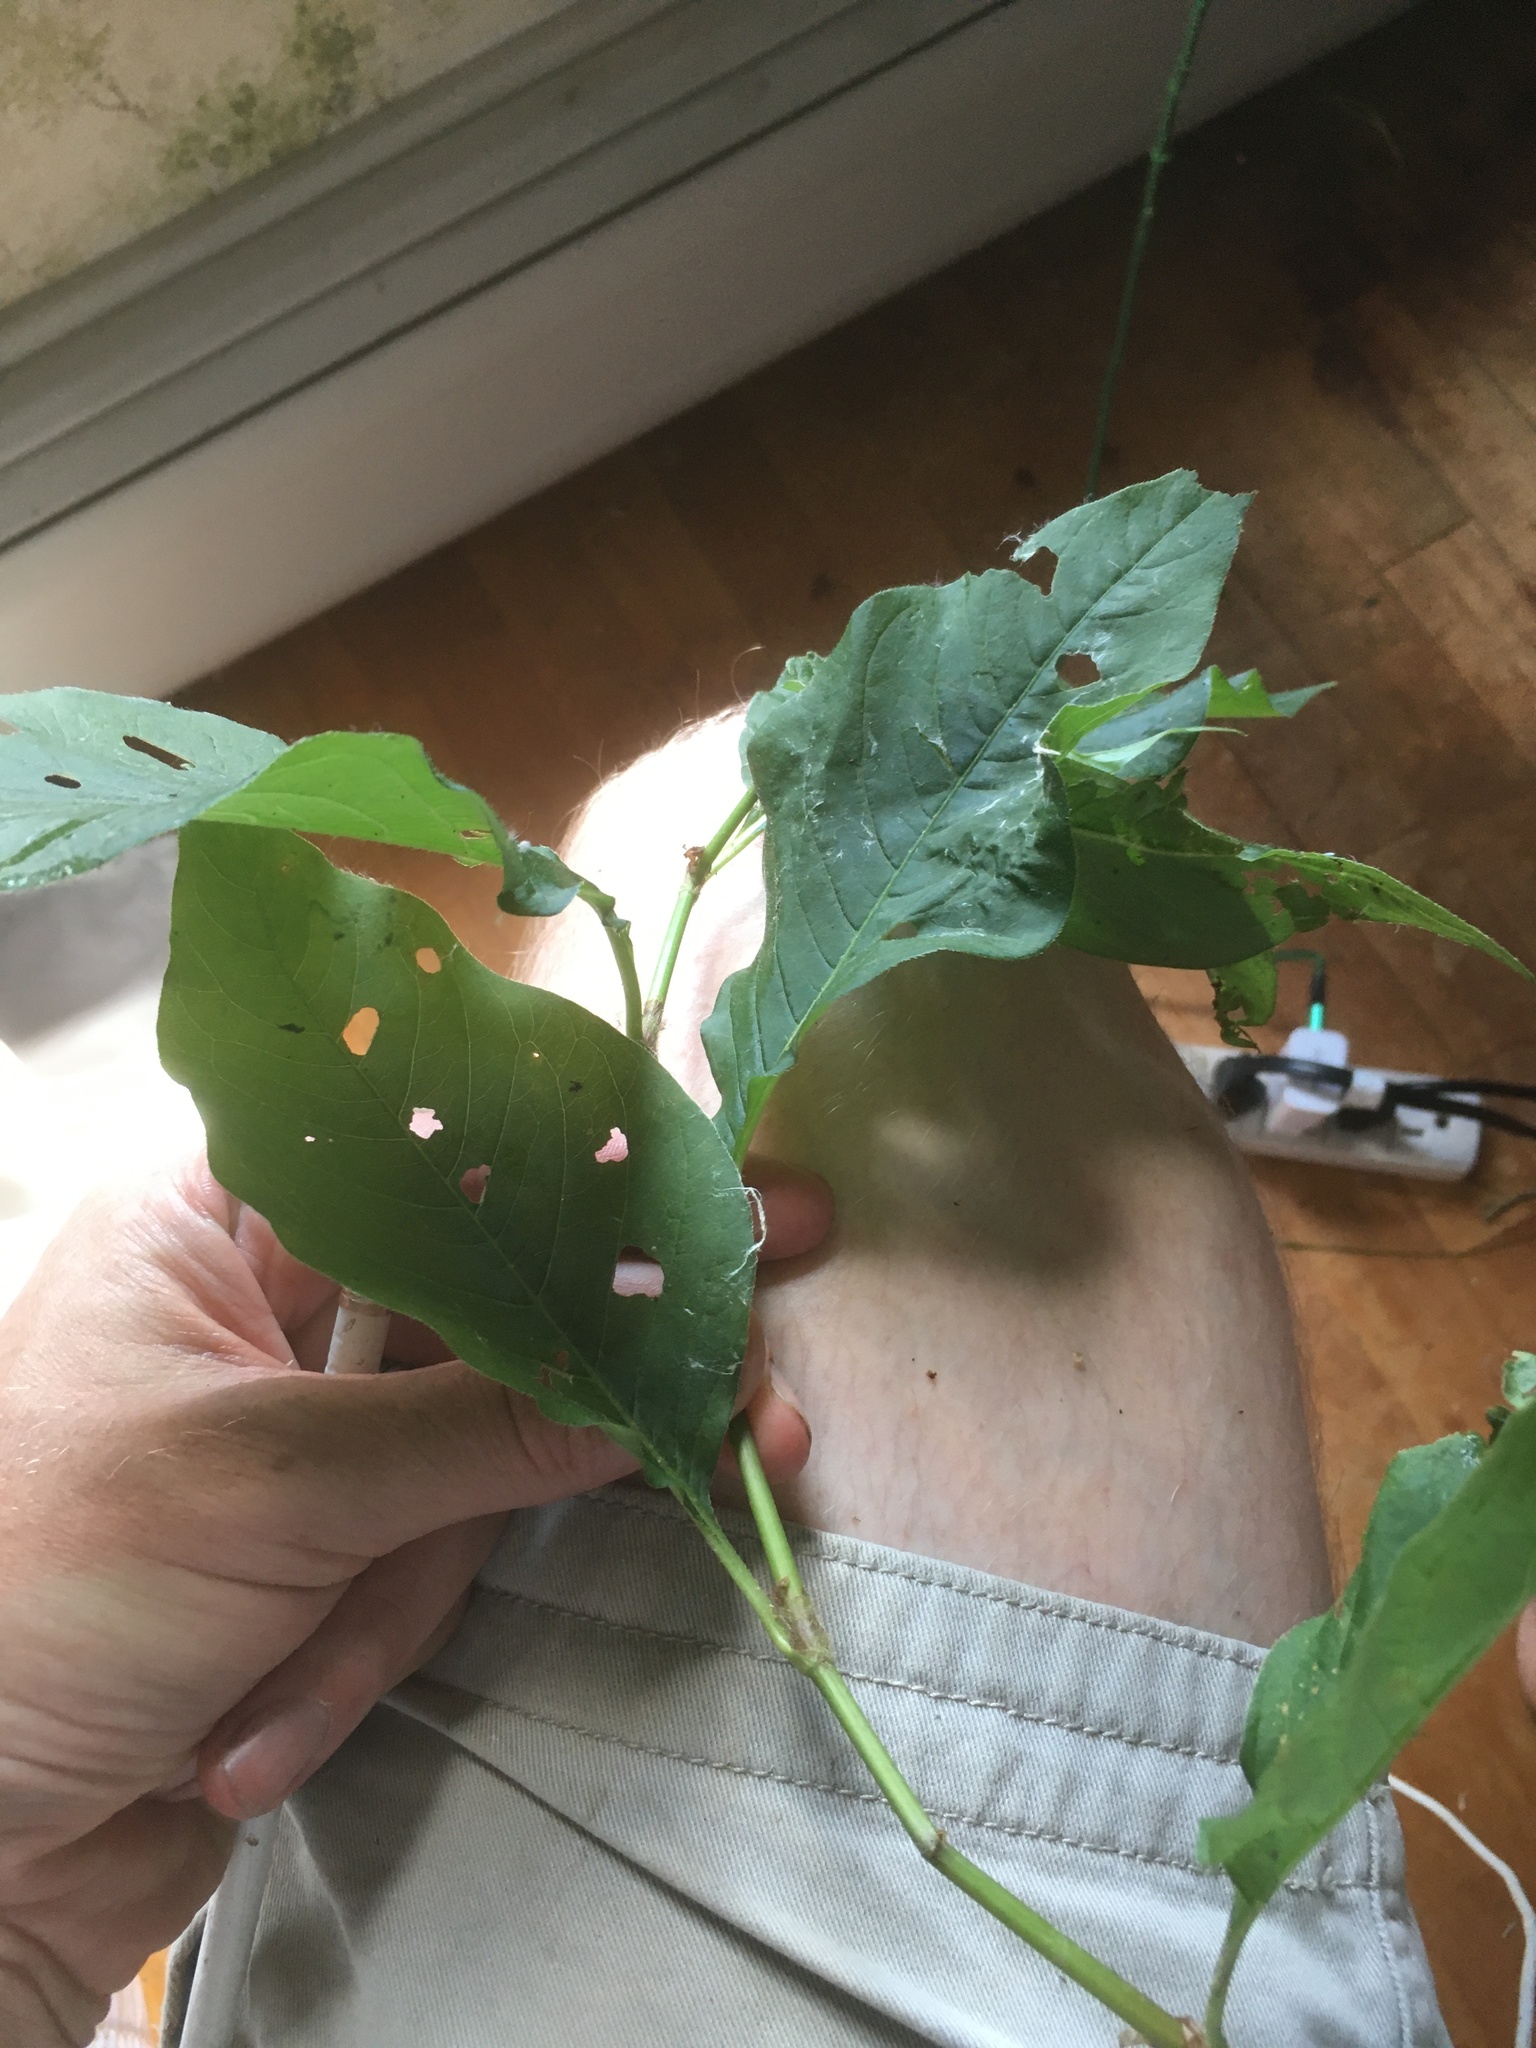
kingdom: Plantae
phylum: Tracheophyta
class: Magnoliopsida
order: Caryophyllales
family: Polygonaceae
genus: Persicaria
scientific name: Persicaria virginiana
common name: Jumpseed
